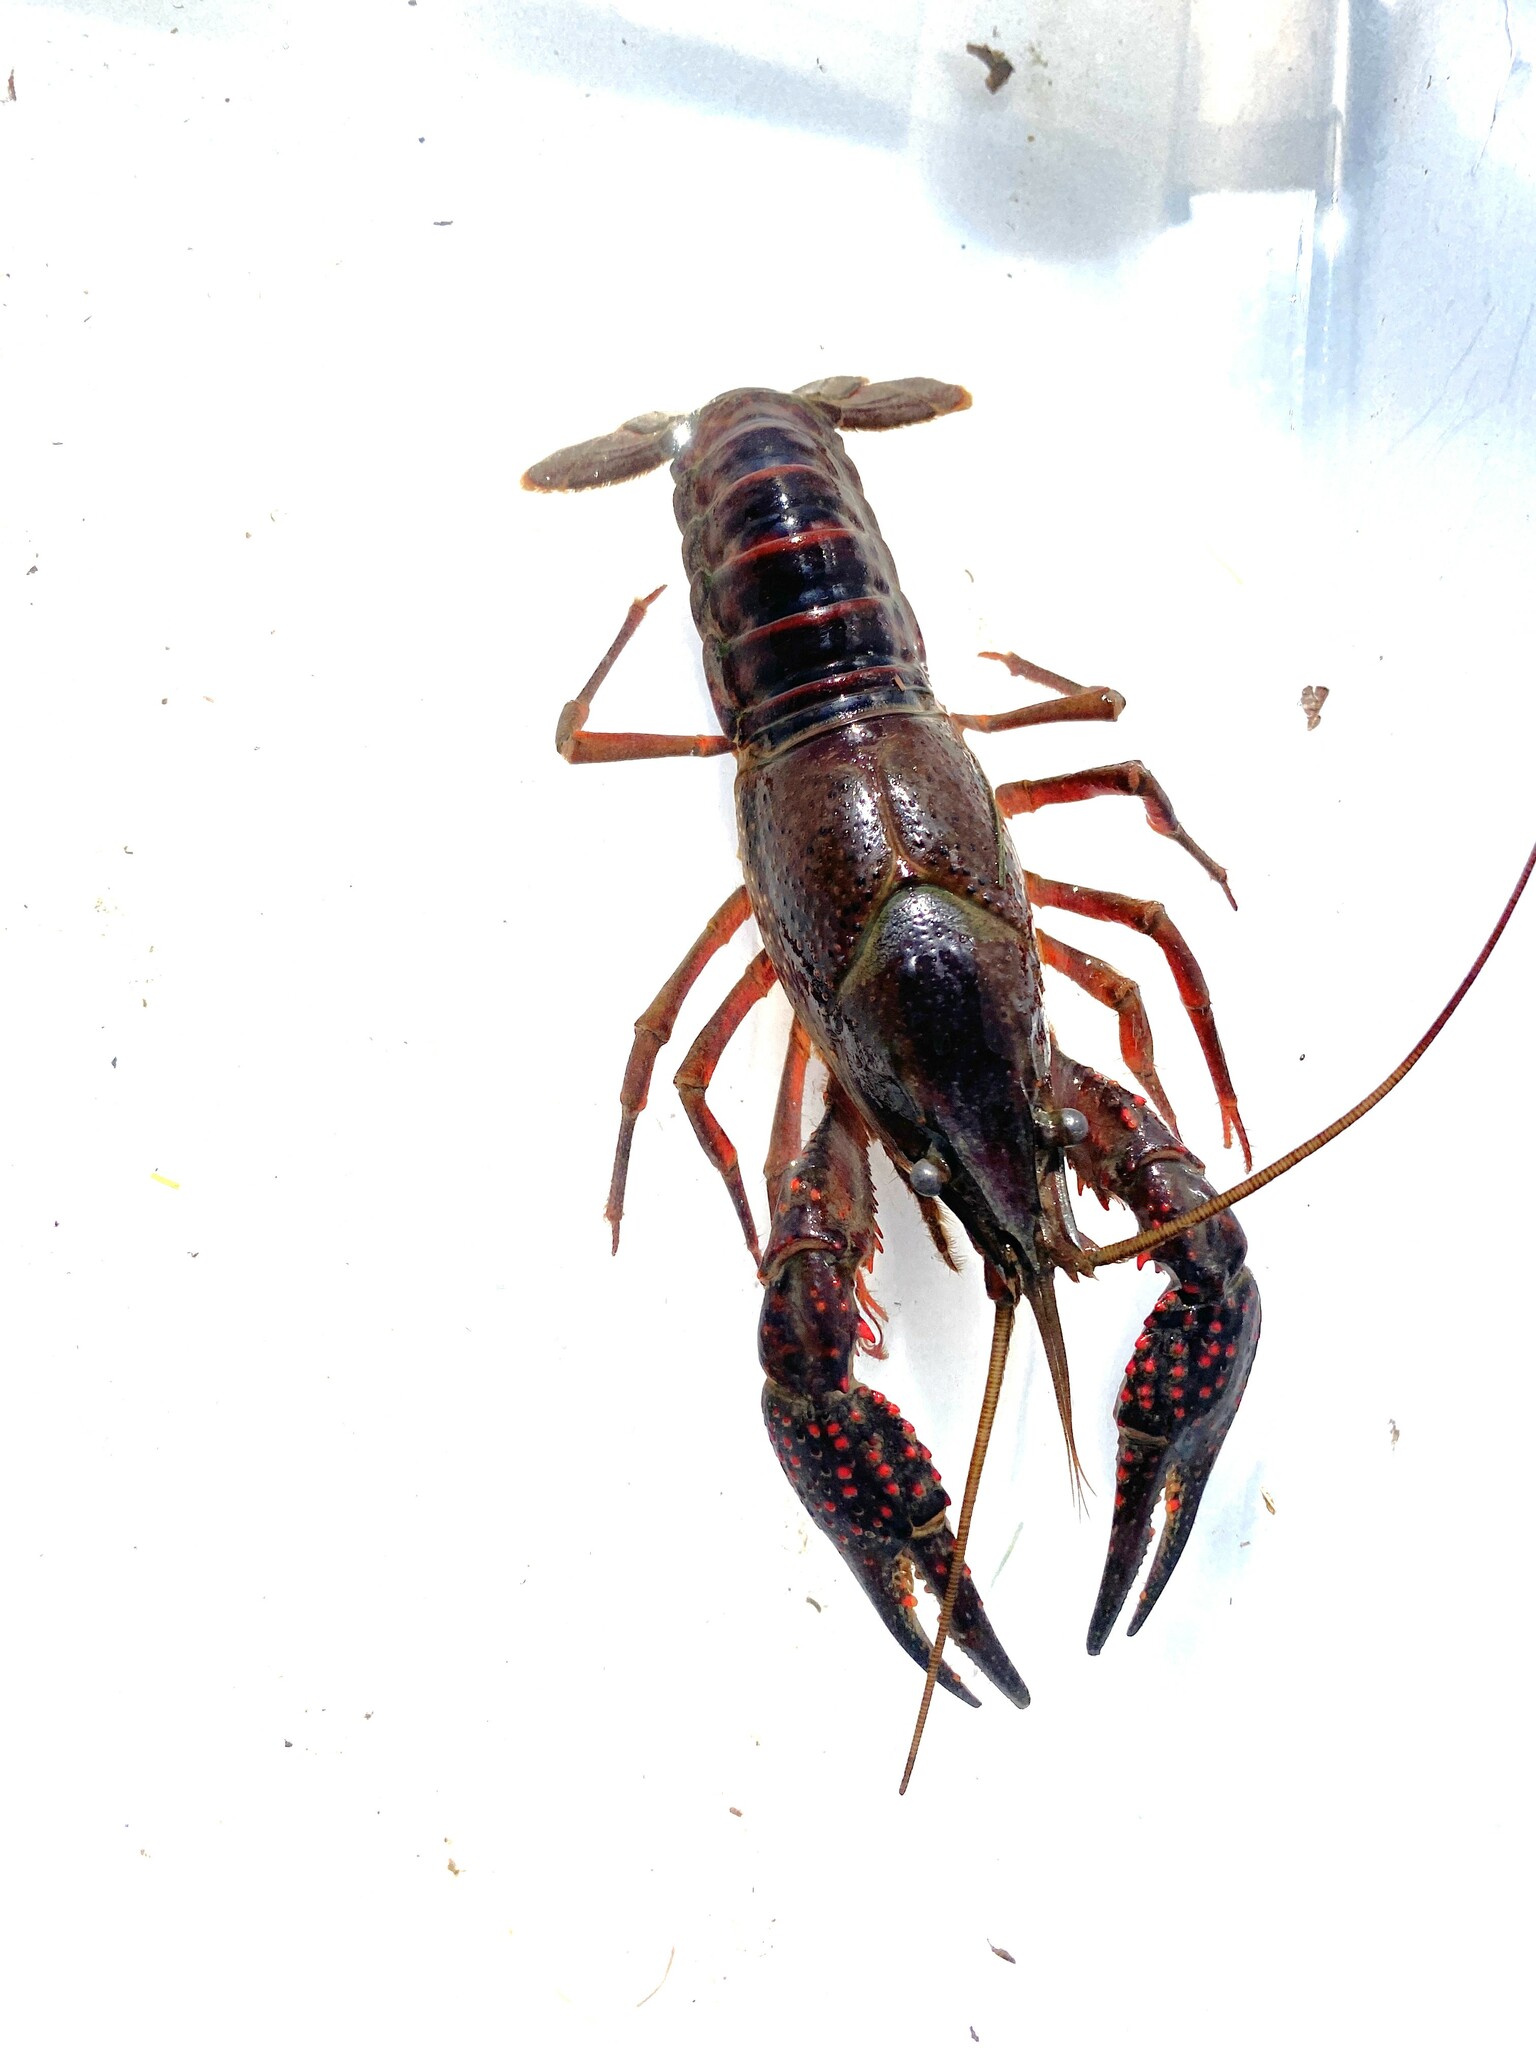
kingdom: Animalia
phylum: Arthropoda
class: Malacostraca
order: Decapoda
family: Cambaridae
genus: Procambarus
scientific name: Procambarus clarkii
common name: Red swamp crayfish
